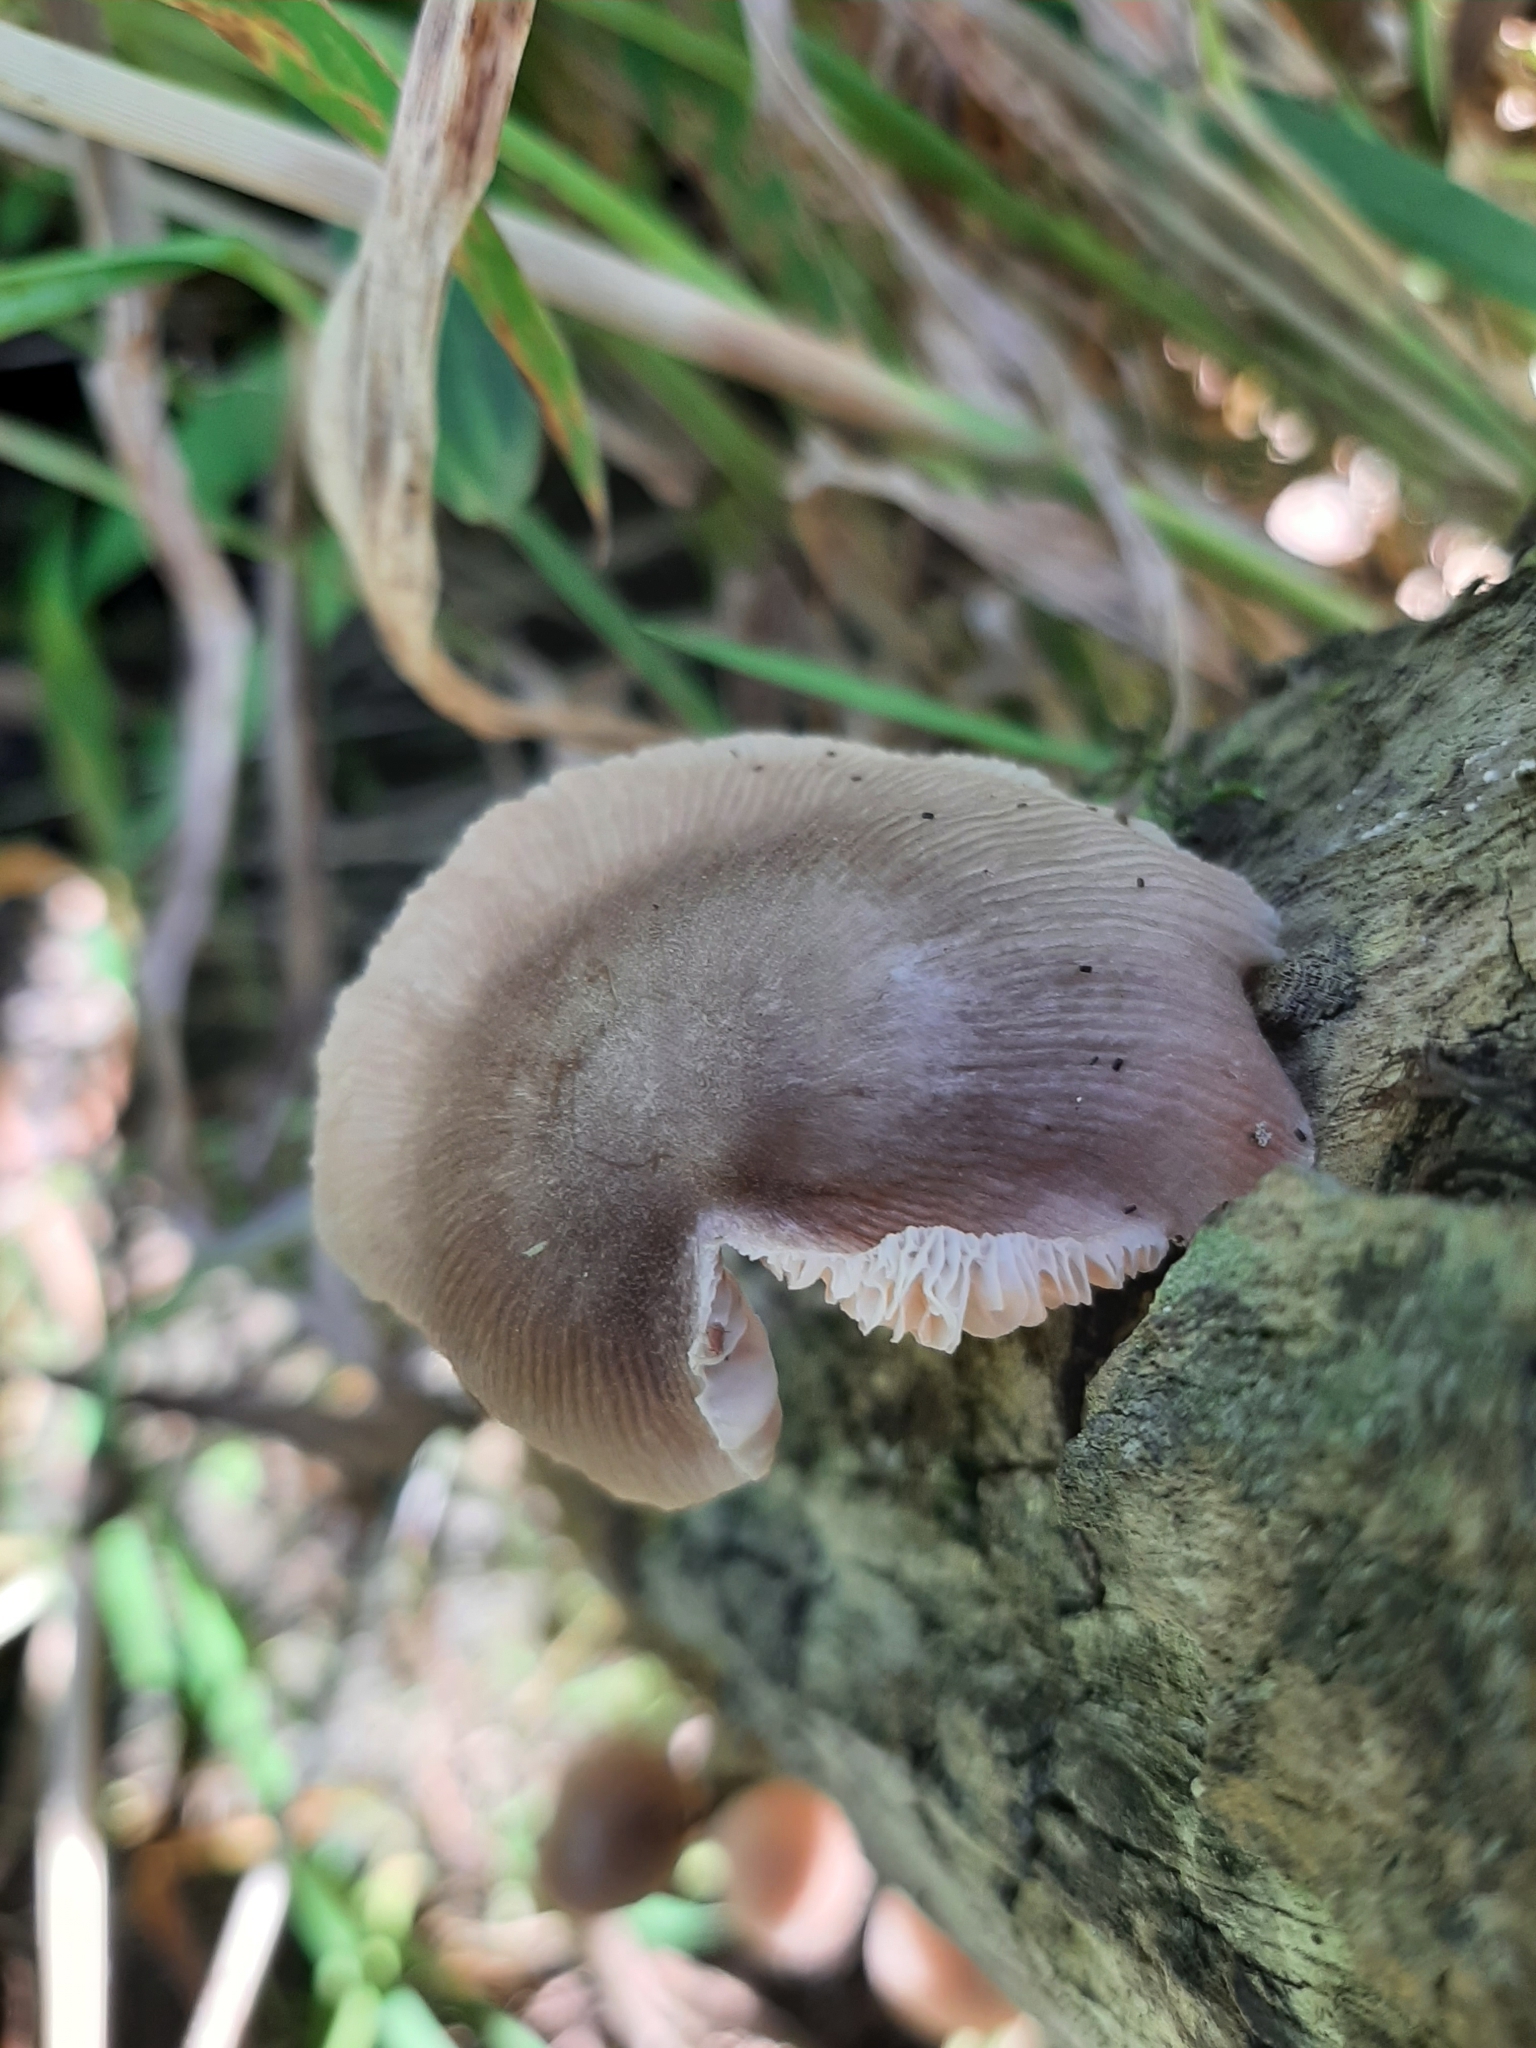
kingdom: Fungi
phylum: Basidiomycota
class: Agaricomycetes
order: Agaricales
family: Pluteaceae
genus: Pluteus
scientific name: Pluteus longistriatus
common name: Pleated pluteus
